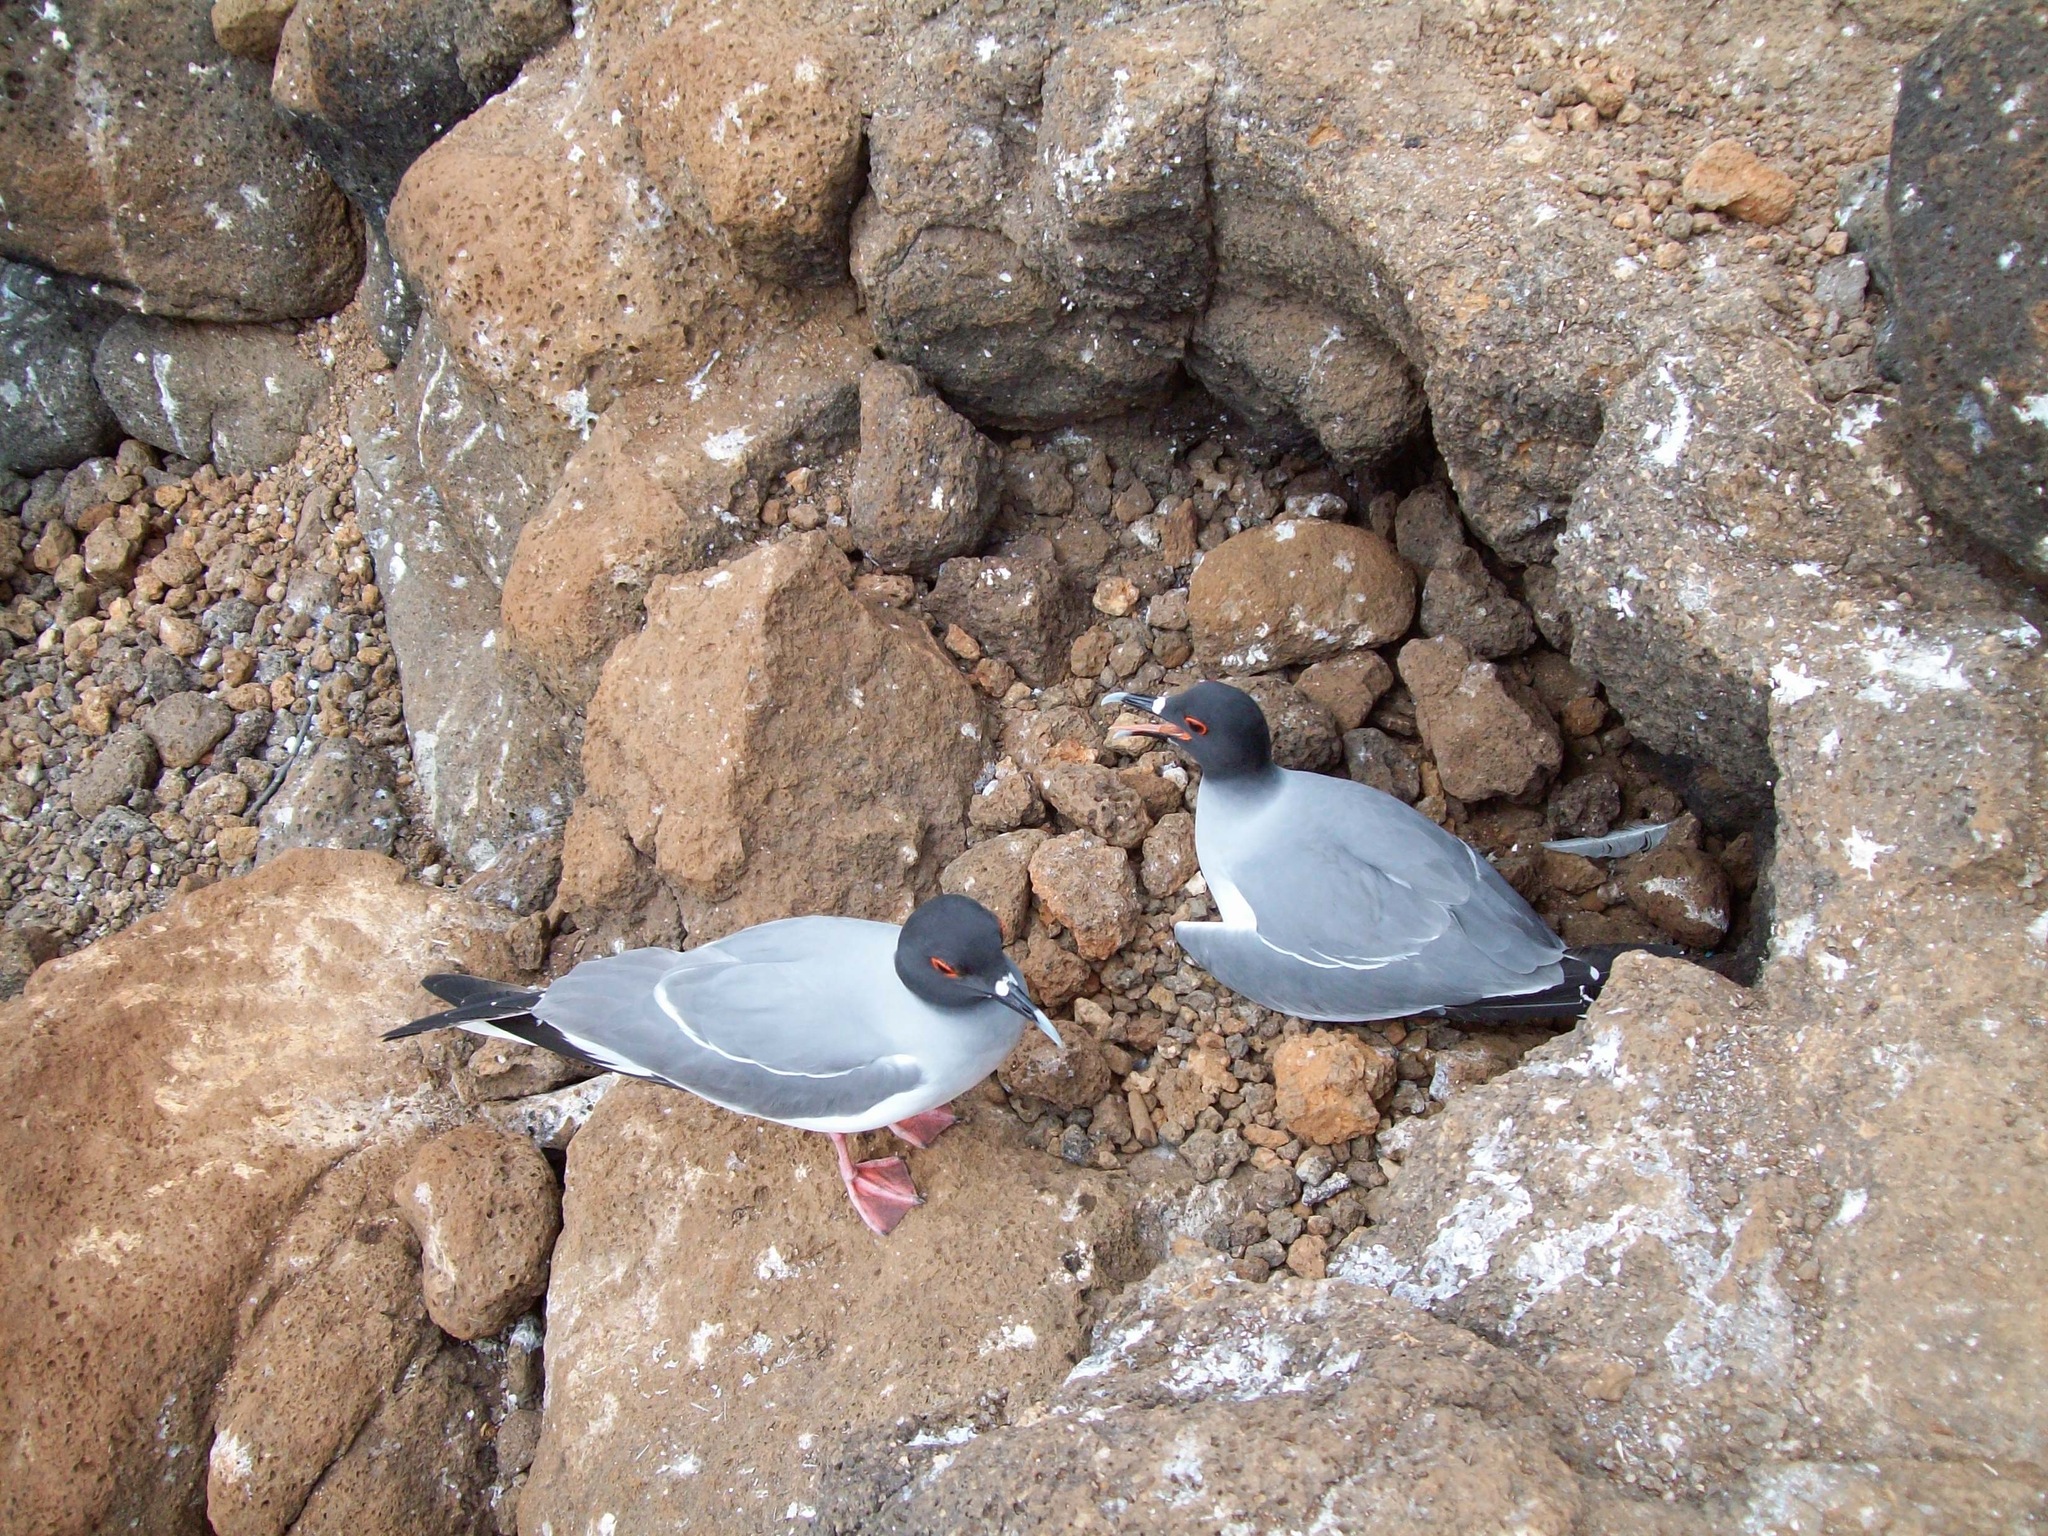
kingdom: Animalia
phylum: Chordata
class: Aves
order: Charadriiformes
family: Laridae
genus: Creagrus
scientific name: Creagrus furcatus
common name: Swallow-tailed gull
